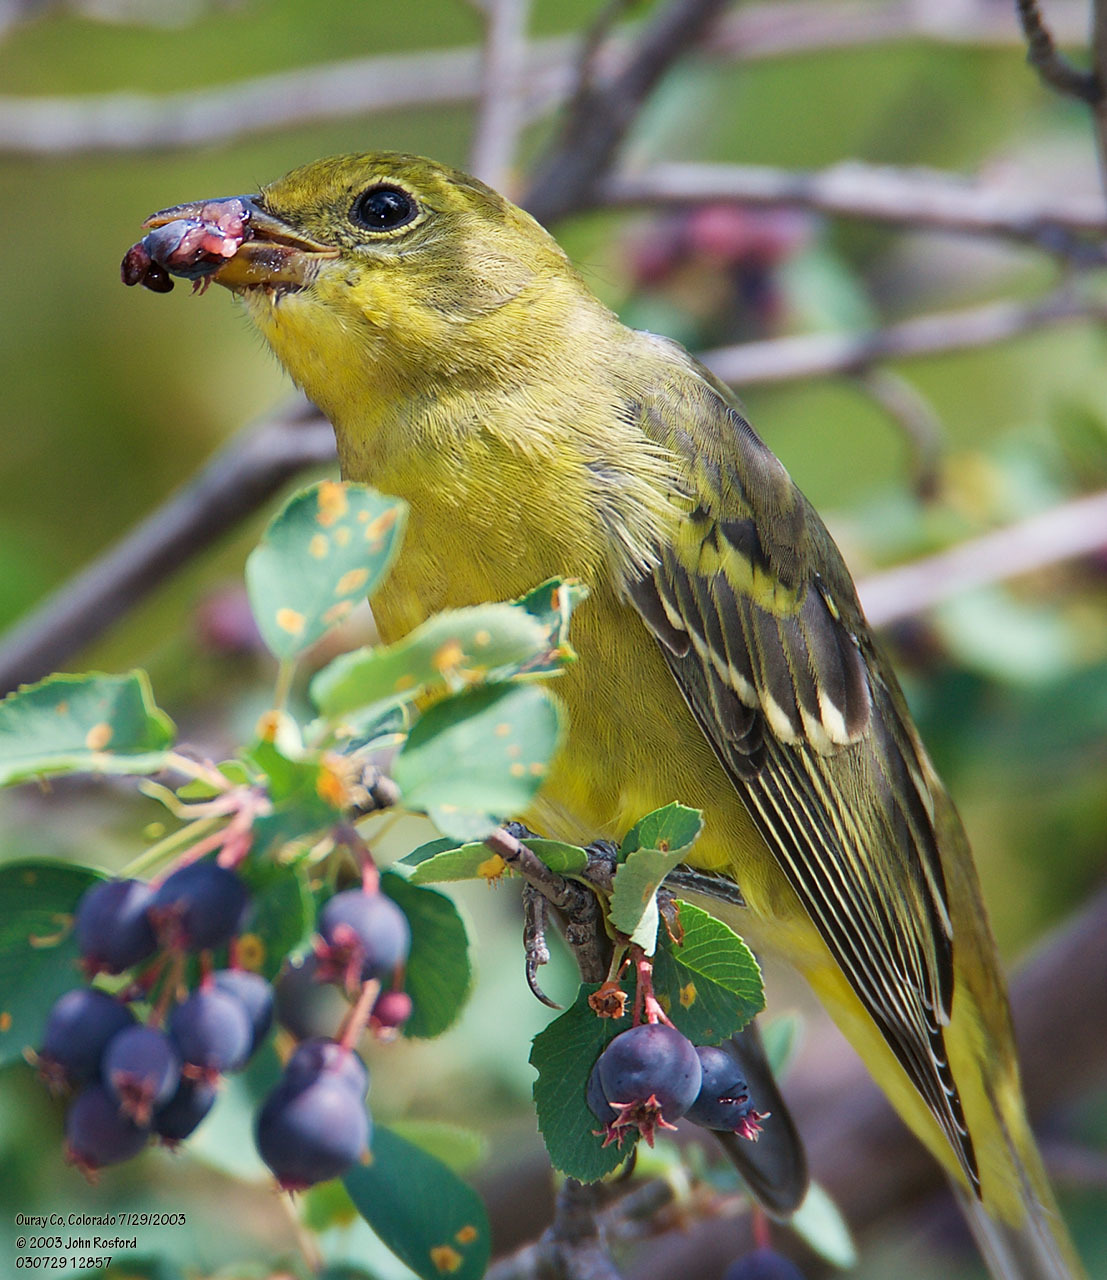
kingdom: Animalia
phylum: Chordata
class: Aves
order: Passeriformes
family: Cardinalidae
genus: Piranga
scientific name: Piranga ludoviciana
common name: Western tanager
